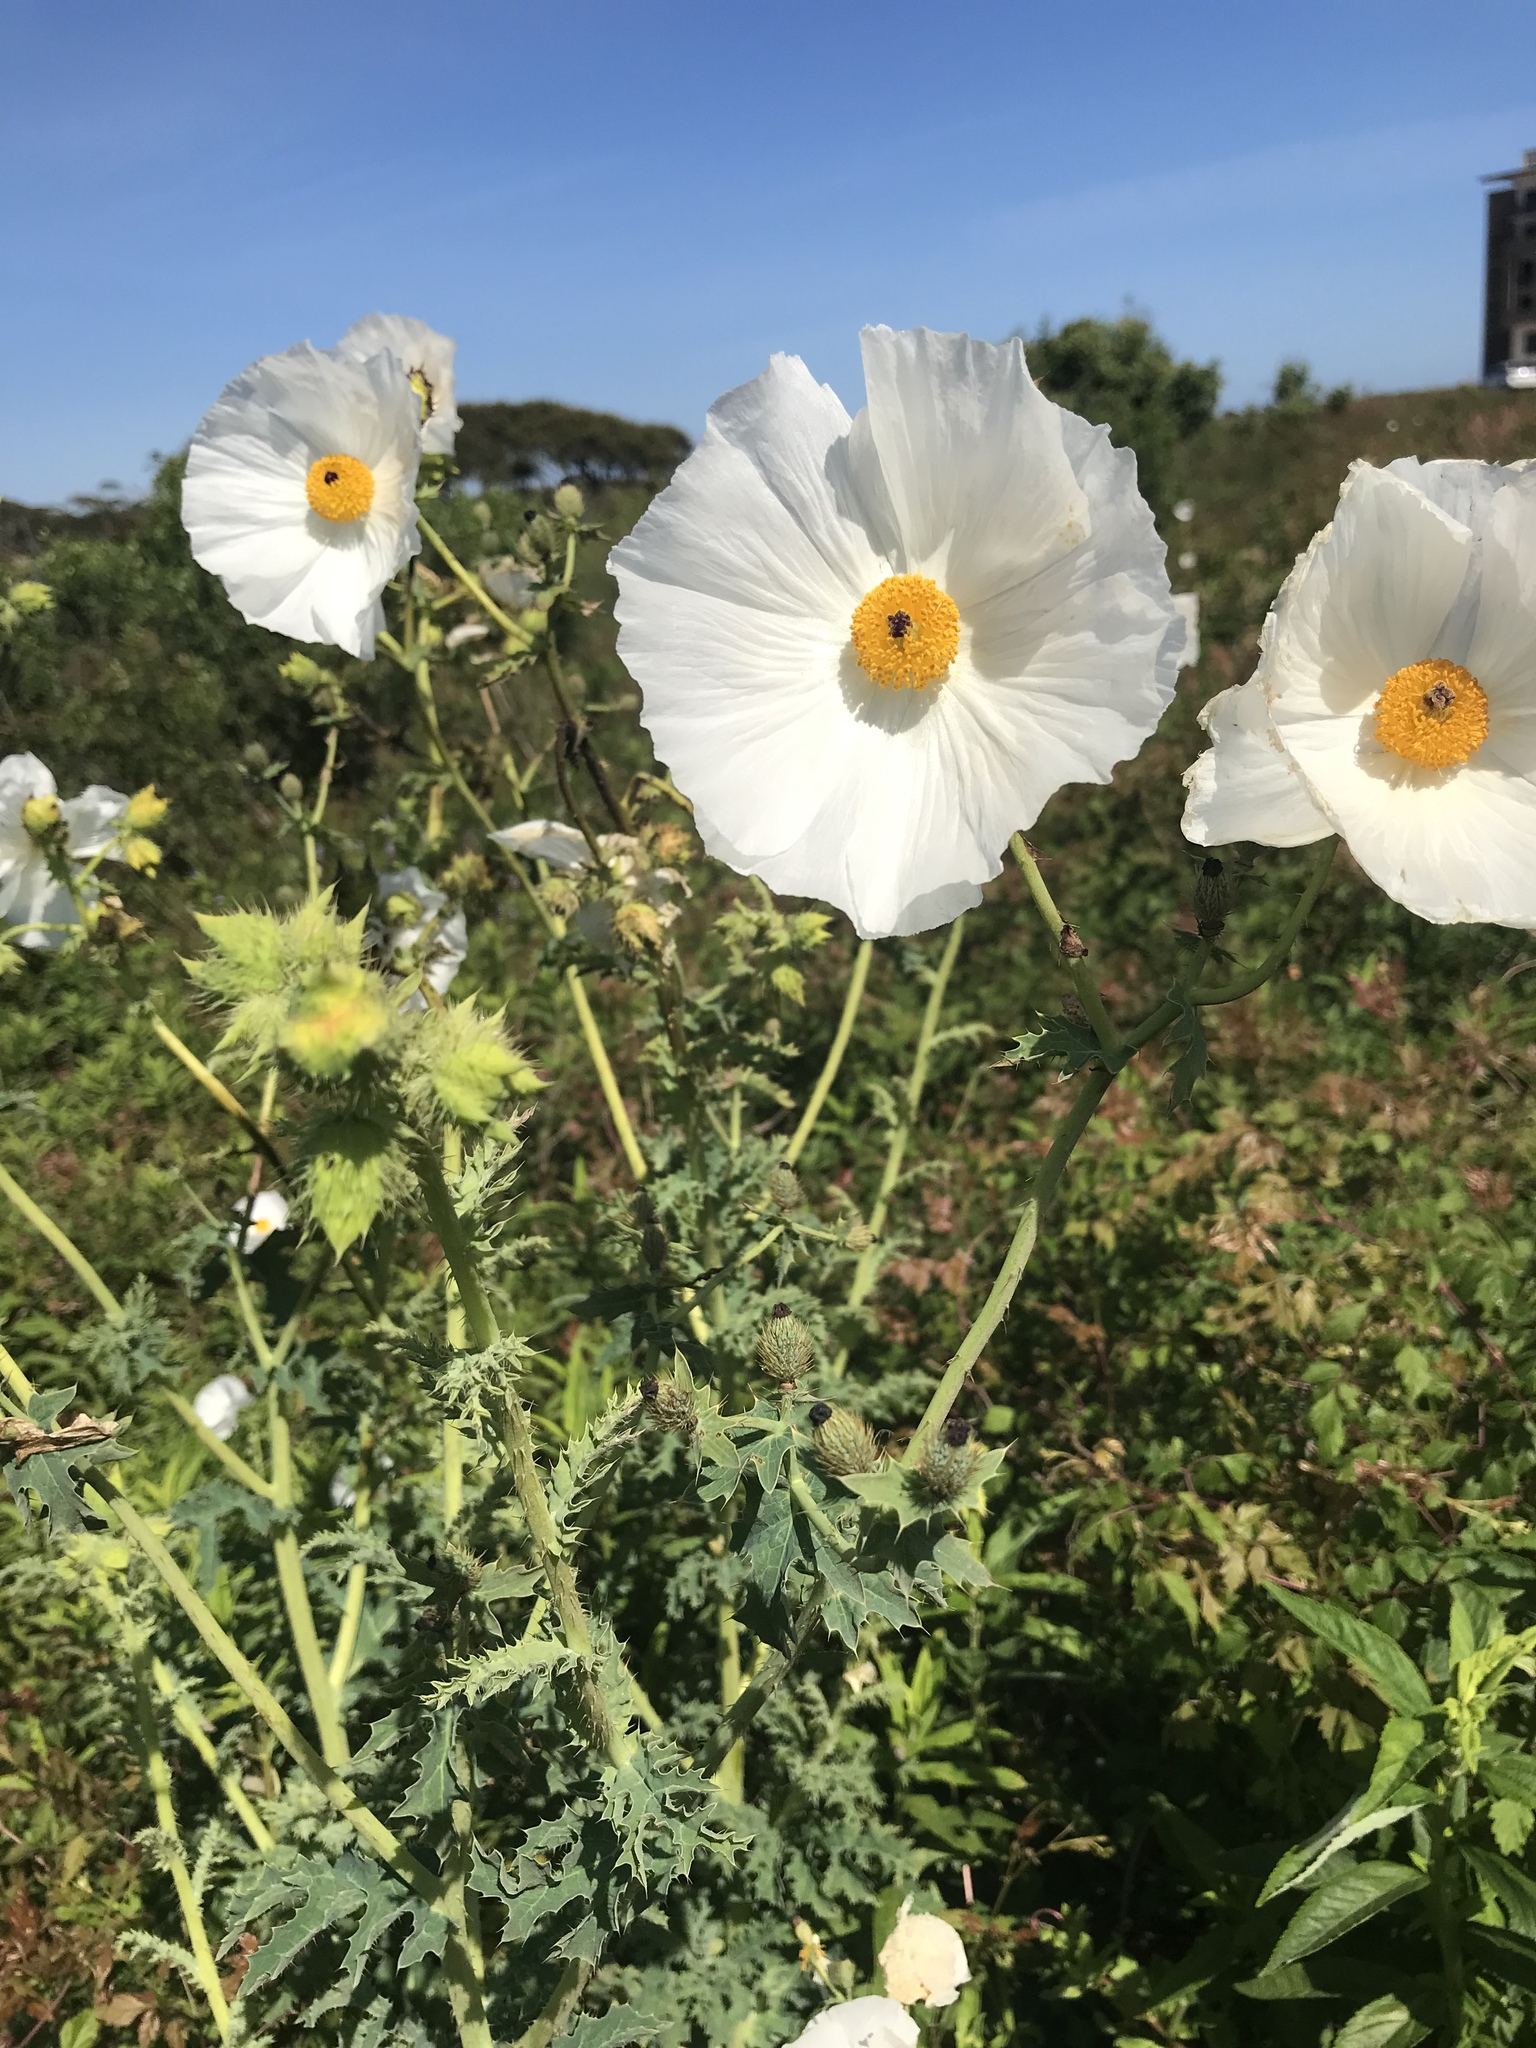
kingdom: Plantae
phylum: Tracheophyta
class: Magnoliopsida
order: Ranunculales
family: Papaveraceae
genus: Argemone
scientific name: Argemone albiflora
